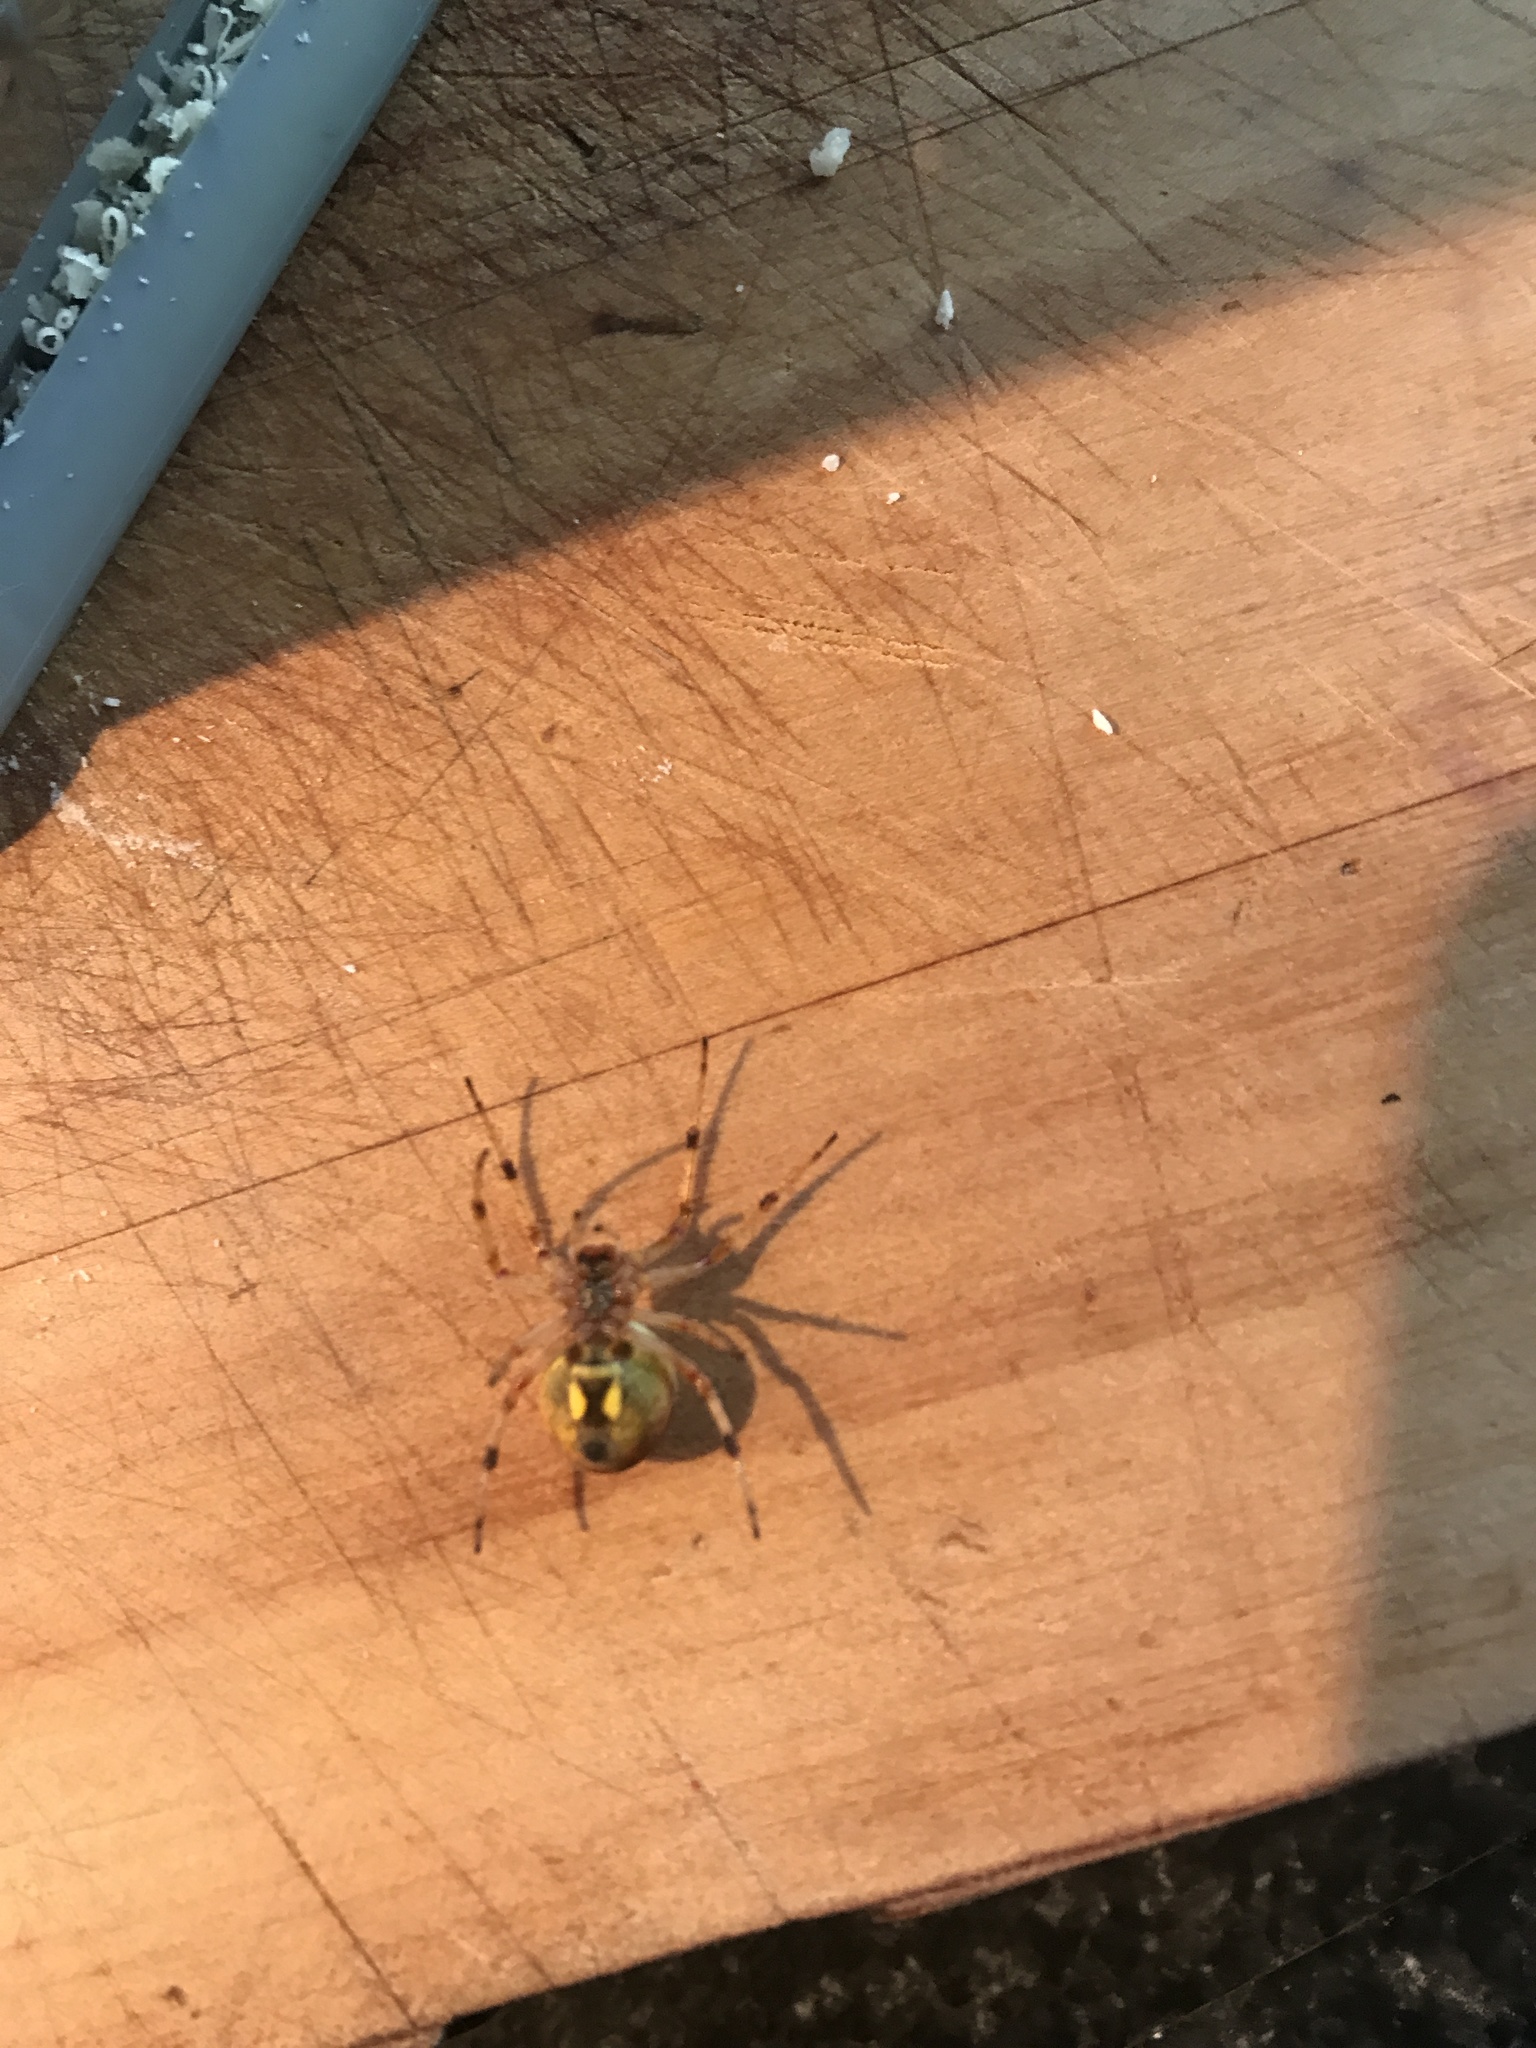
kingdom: Animalia
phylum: Arthropoda
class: Arachnida
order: Araneae
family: Araneidae
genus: Salsa
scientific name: Salsa fuliginata
